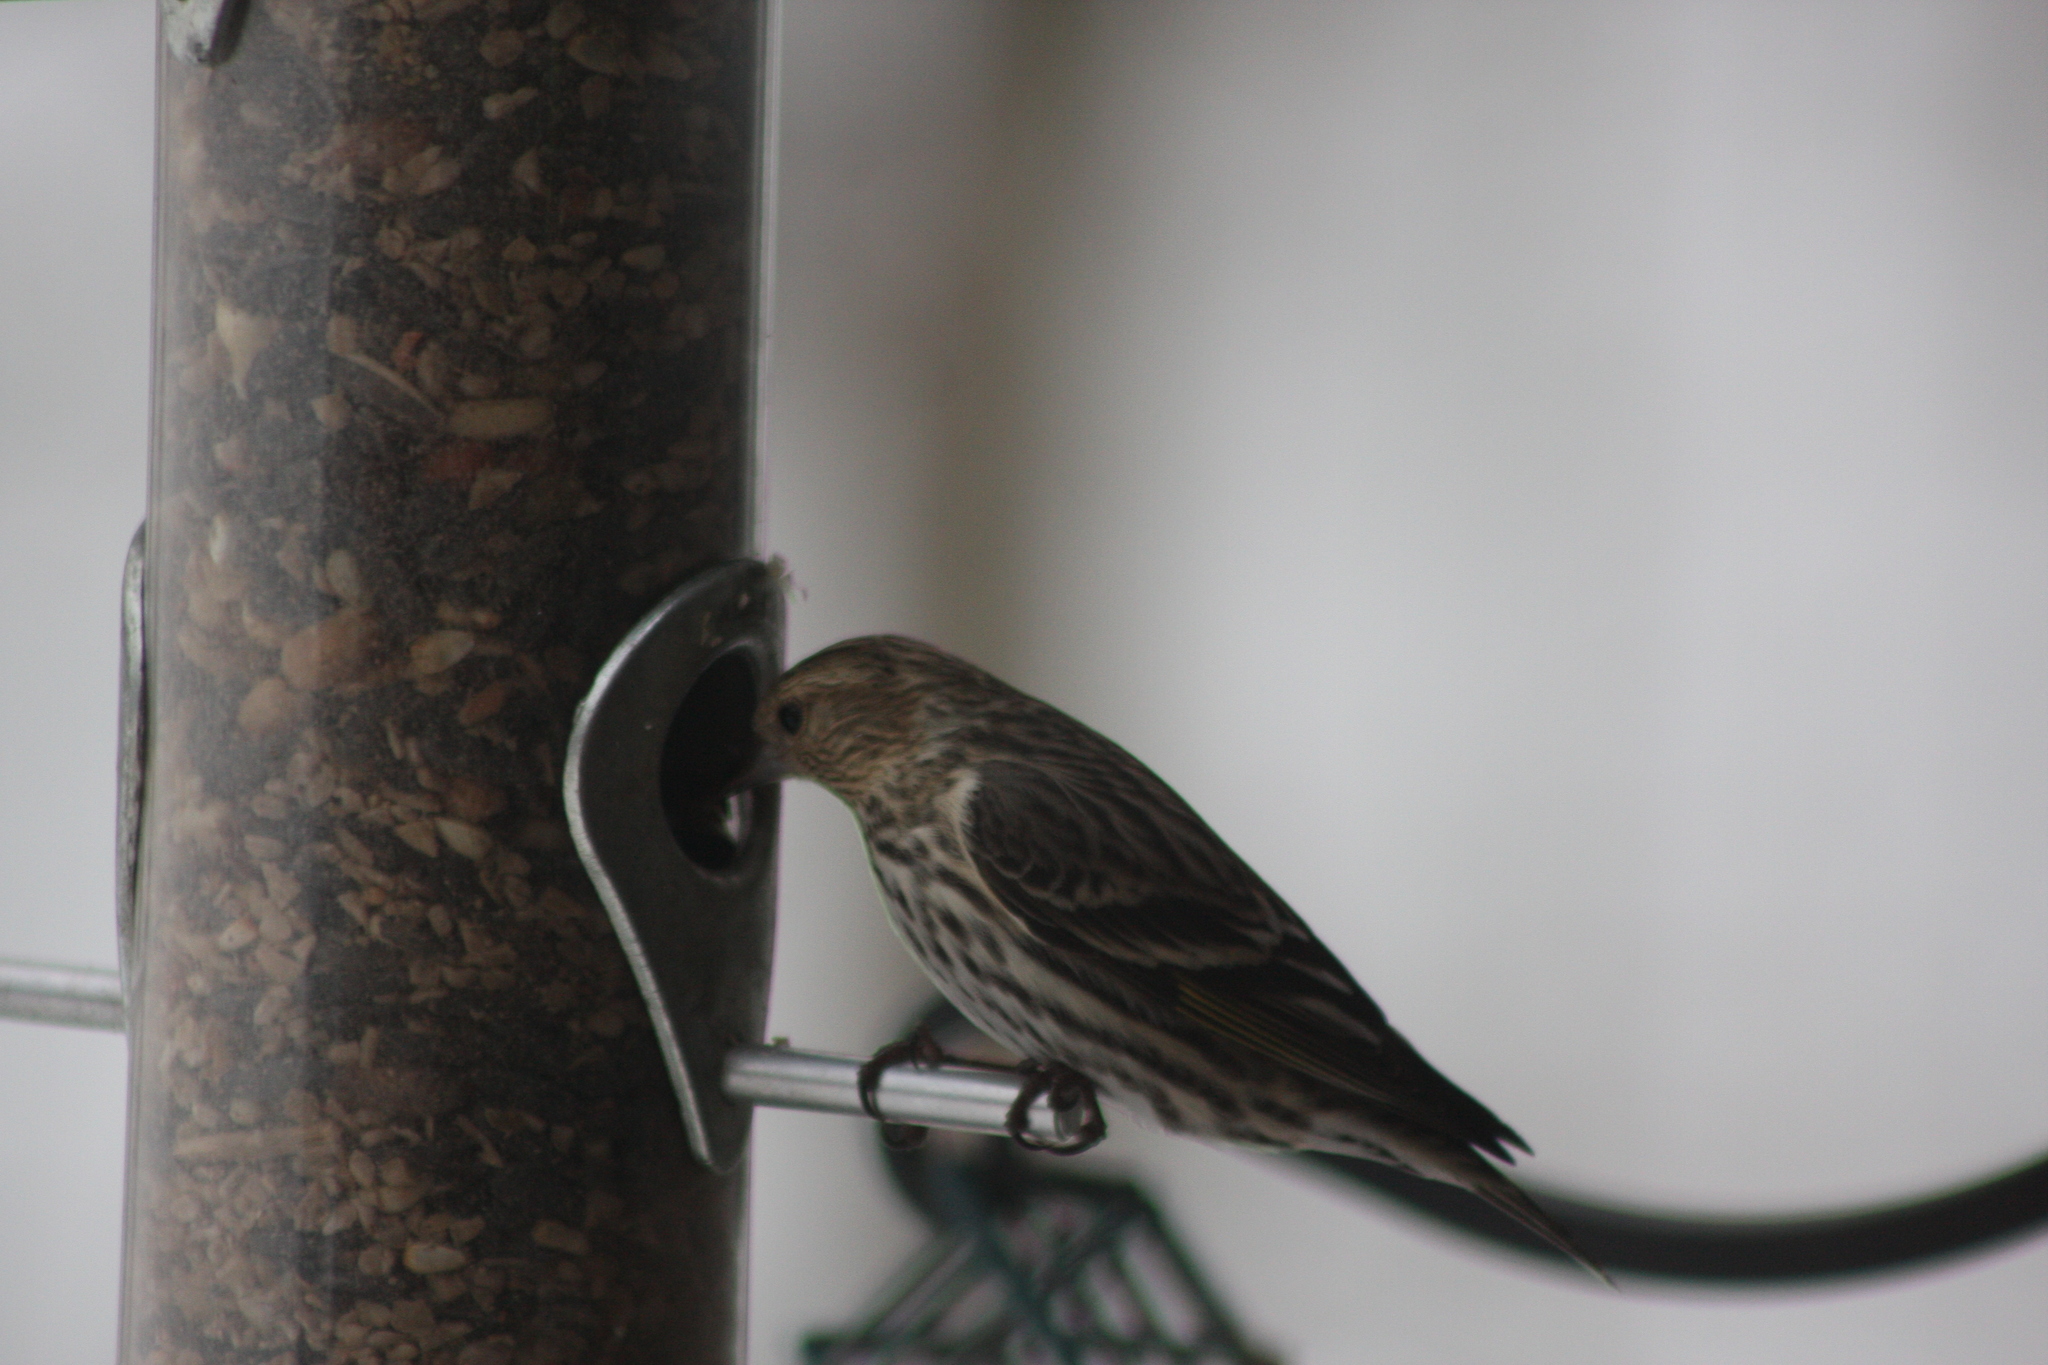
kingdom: Animalia
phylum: Chordata
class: Aves
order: Passeriformes
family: Fringillidae
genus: Spinus
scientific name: Spinus pinus
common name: Pine siskin
